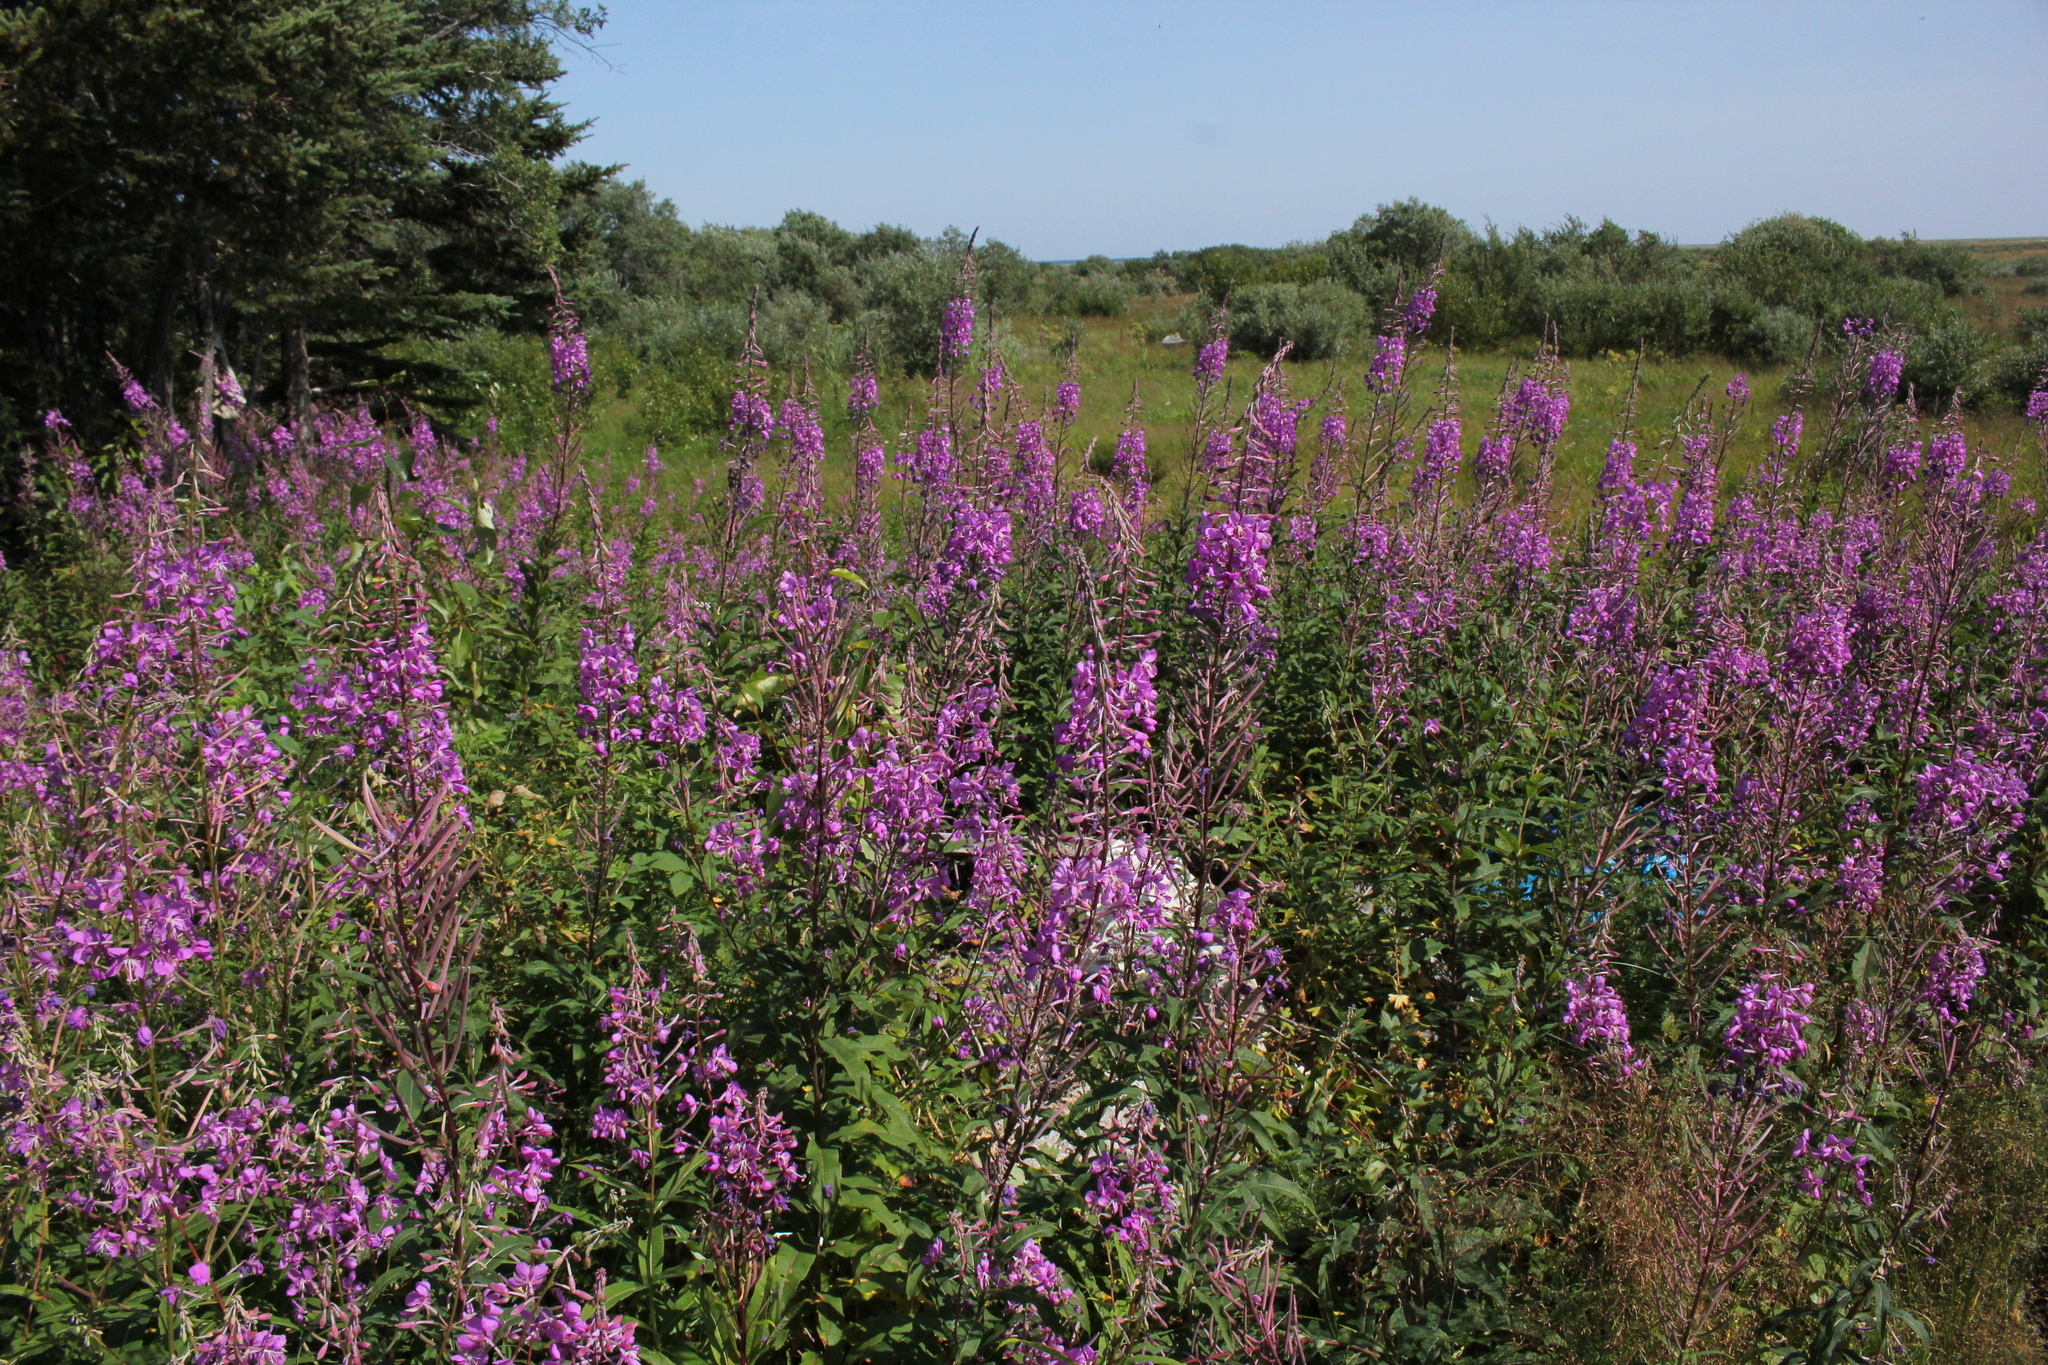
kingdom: Plantae
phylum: Tracheophyta
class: Magnoliopsida
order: Myrtales
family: Onagraceae
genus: Chamaenerion
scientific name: Chamaenerion angustifolium
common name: Fireweed
